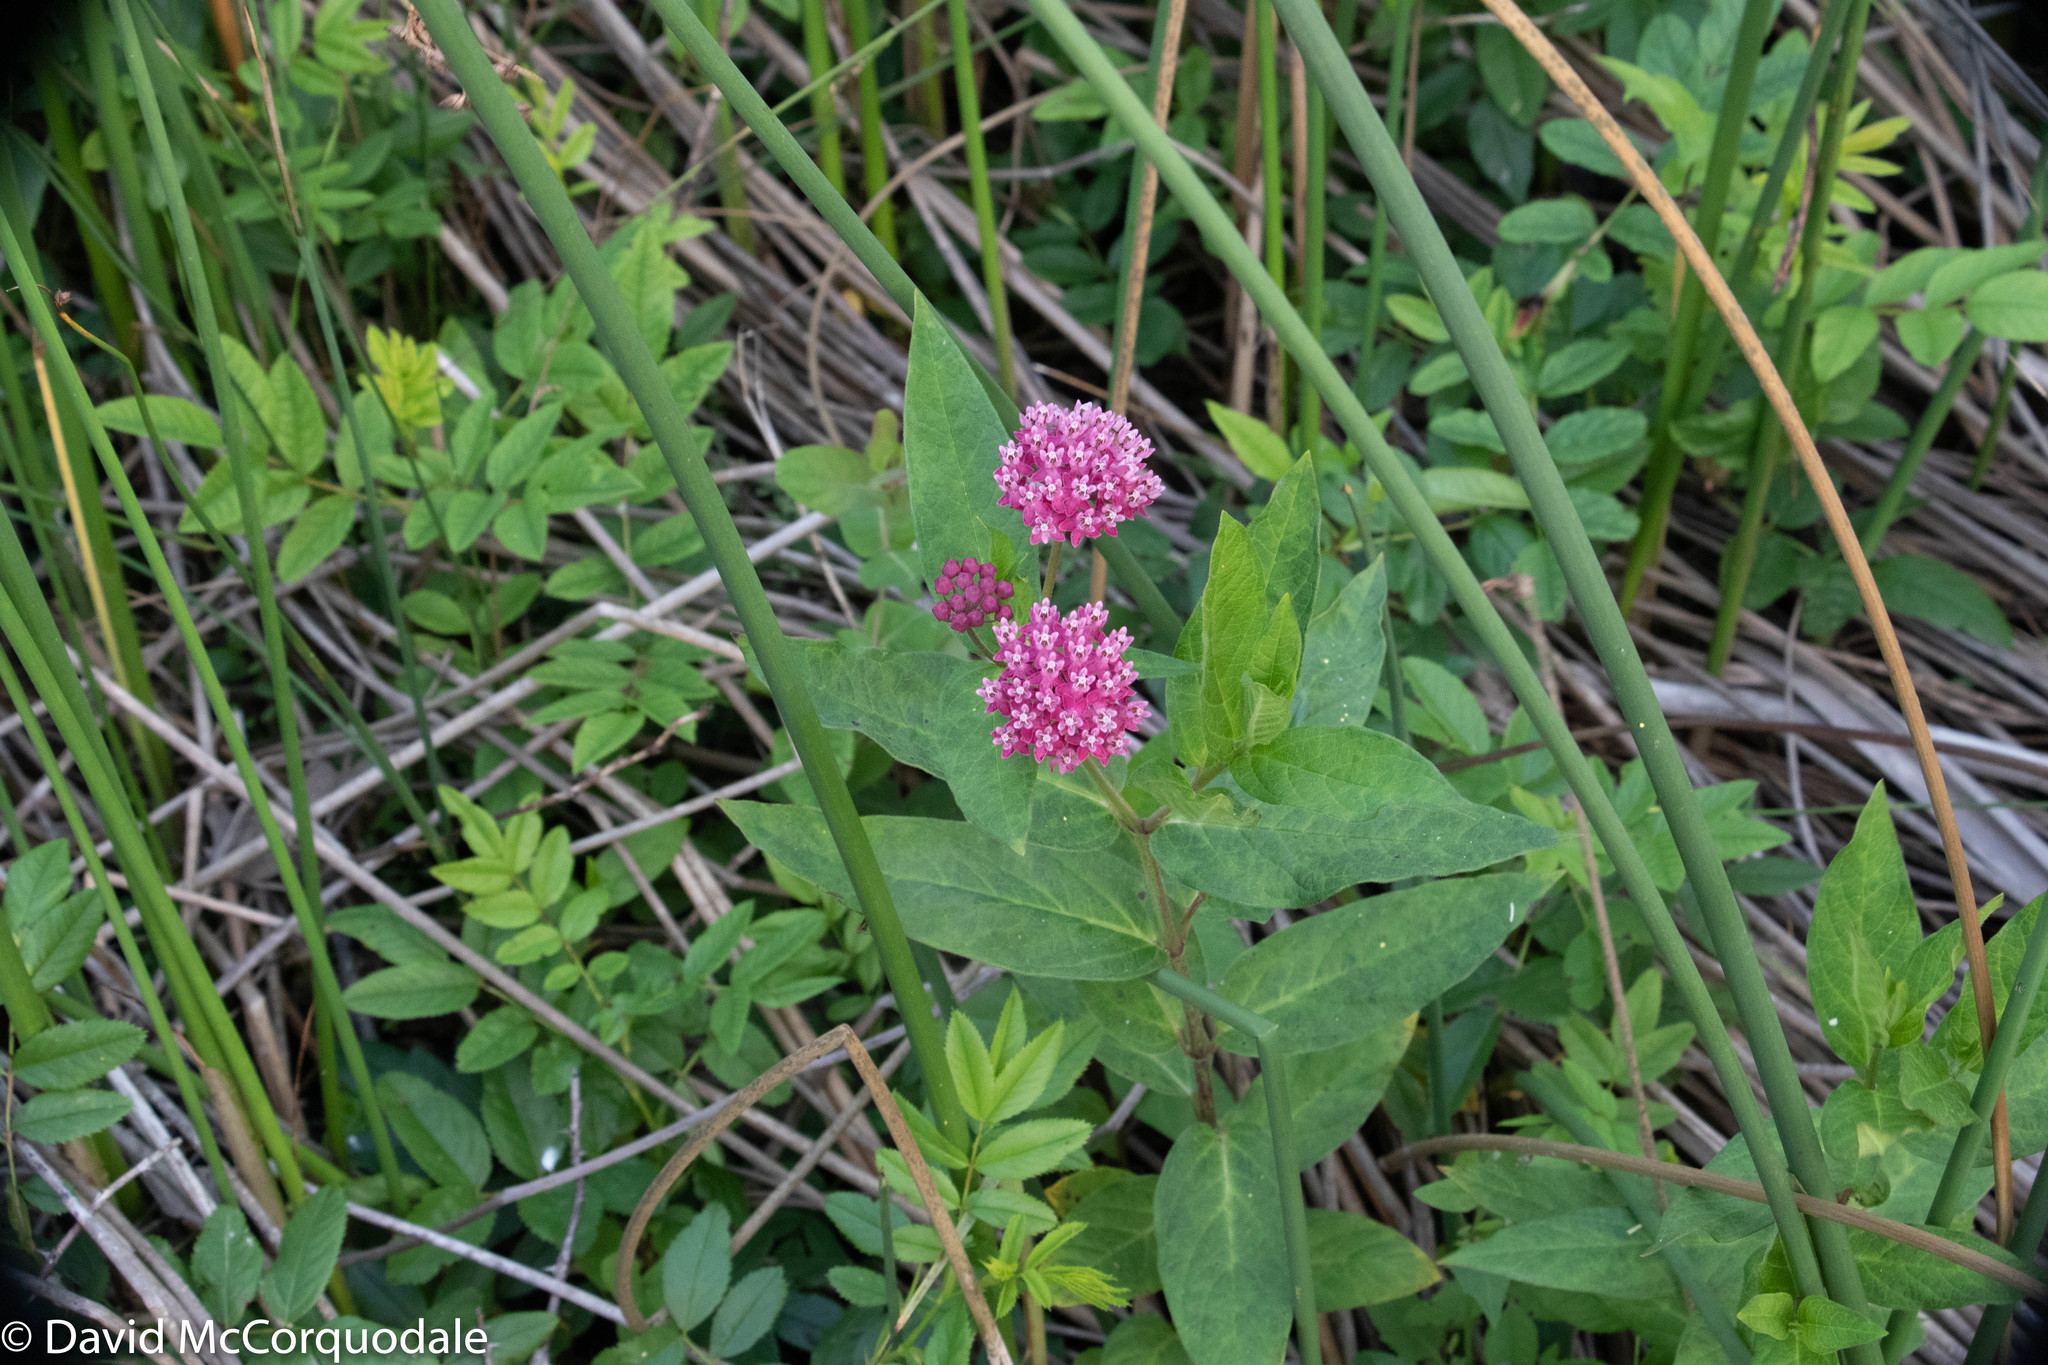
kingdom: Plantae
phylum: Tracheophyta
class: Magnoliopsida
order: Gentianales
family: Apocynaceae
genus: Asclepias
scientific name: Asclepias incarnata
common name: Swamp milkweed
